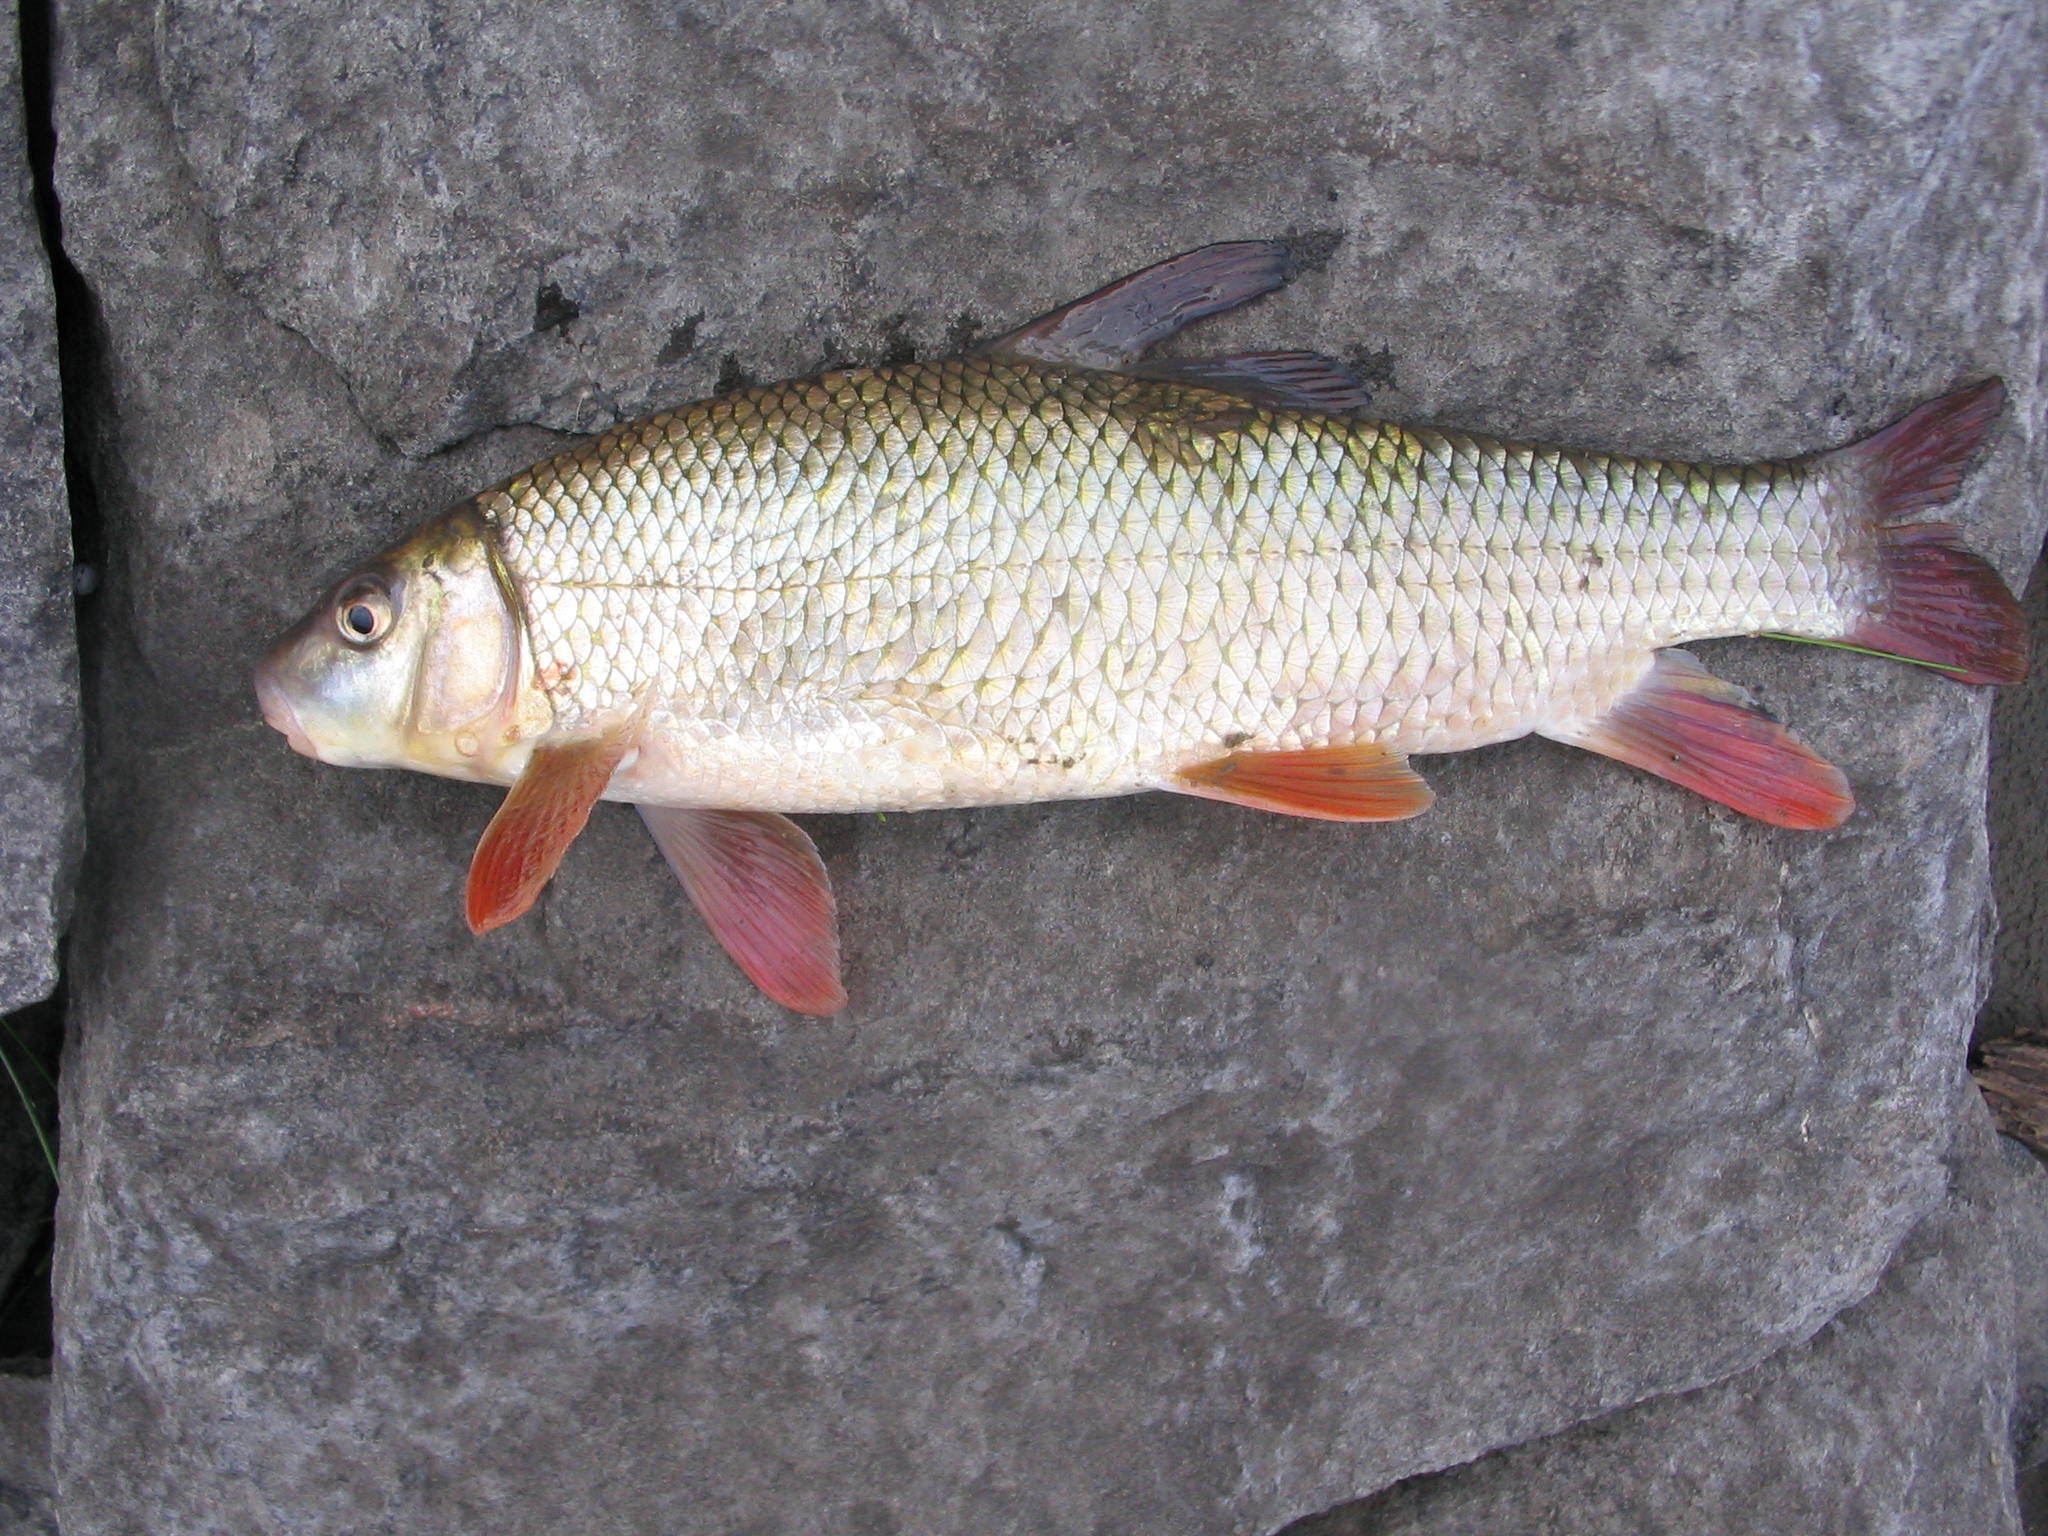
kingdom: Animalia
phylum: Chordata
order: Cypriniformes
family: Catostomidae
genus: Moxostoma
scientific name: Moxostoma macrolepidotum
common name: Shorthead redhorse
